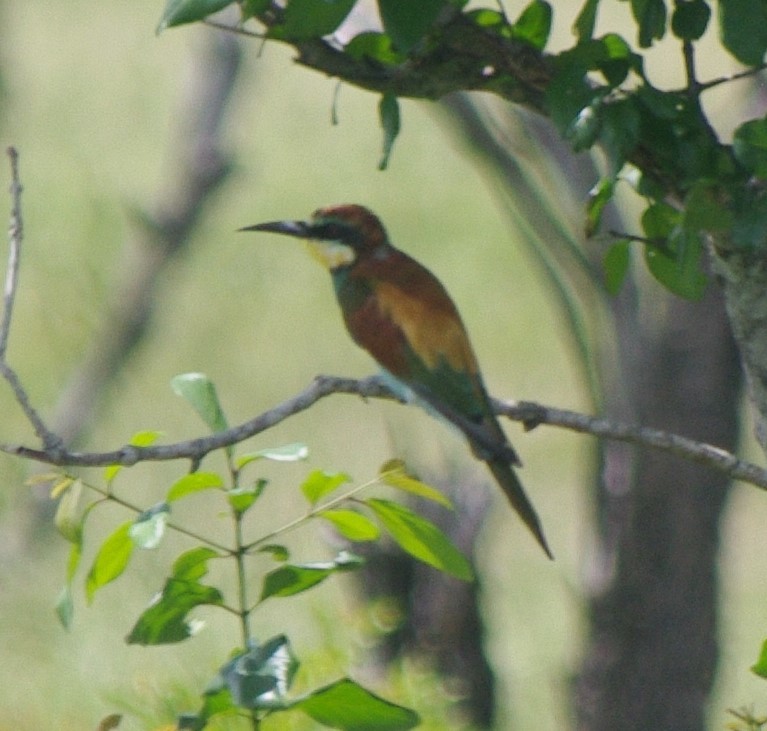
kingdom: Animalia
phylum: Chordata
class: Aves
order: Coraciiformes
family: Meropidae
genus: Merops
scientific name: Merops apiaster
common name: European bee-eater
